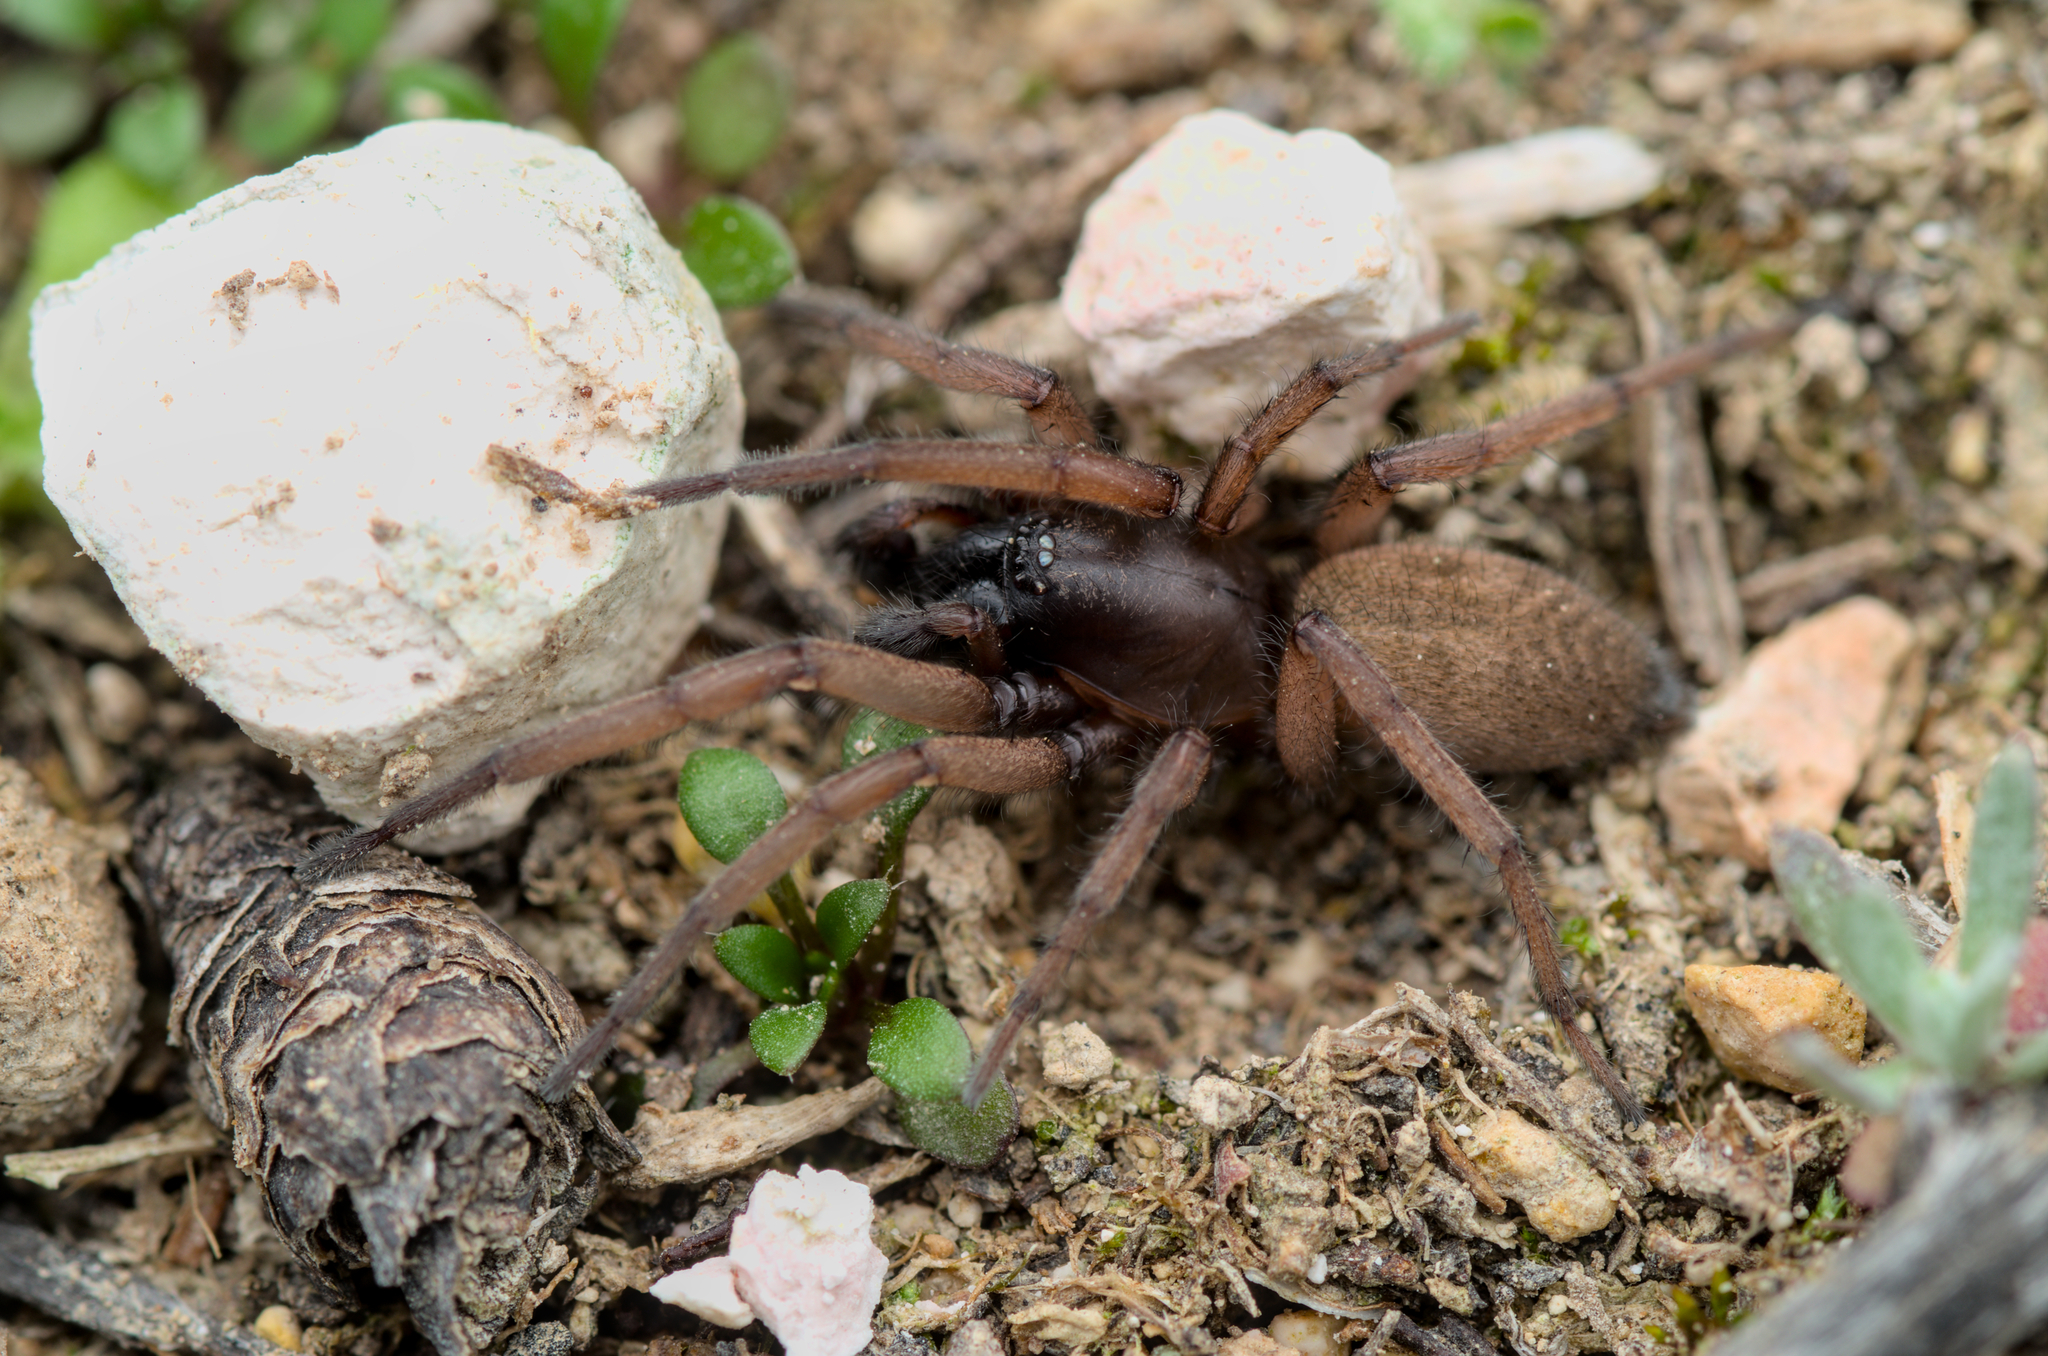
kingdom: Animalia
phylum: Arthropoda
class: Arachnida
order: Araneae
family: Gnaphosidae
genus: Haplodrassus
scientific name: Haplodrassus rufipes
